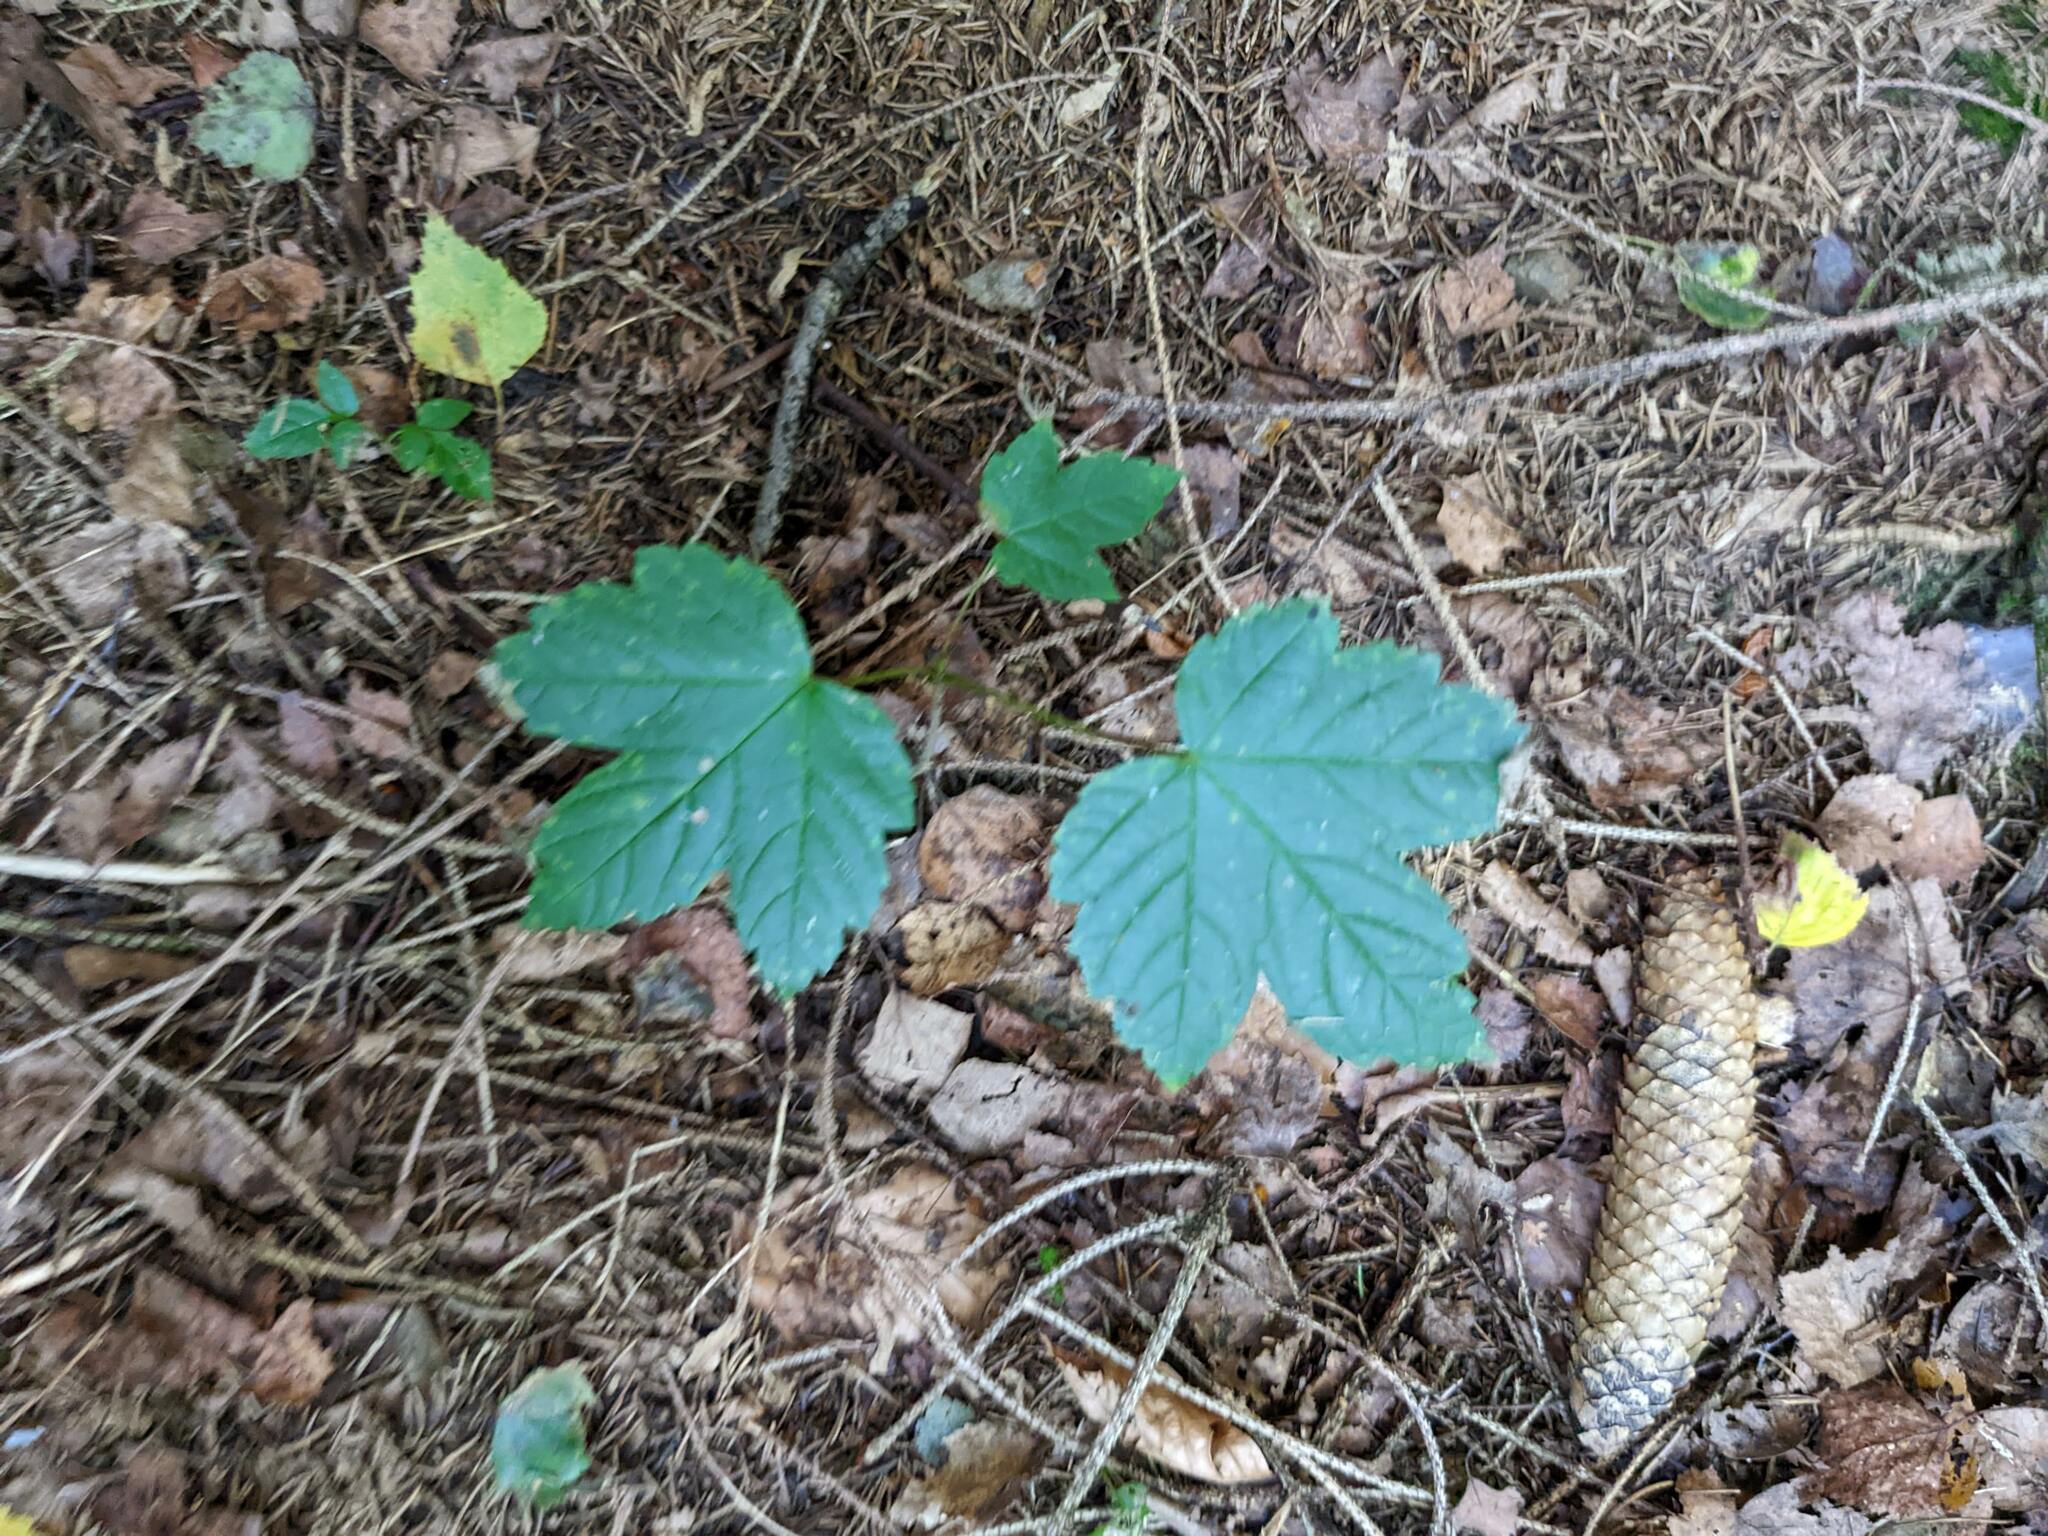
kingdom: Plantae
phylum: Tracheophyta
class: Magnoliopsida
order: Sapindales
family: Sapindaceae
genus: Acer
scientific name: Acer pseudoplatanus
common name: Sycamore
